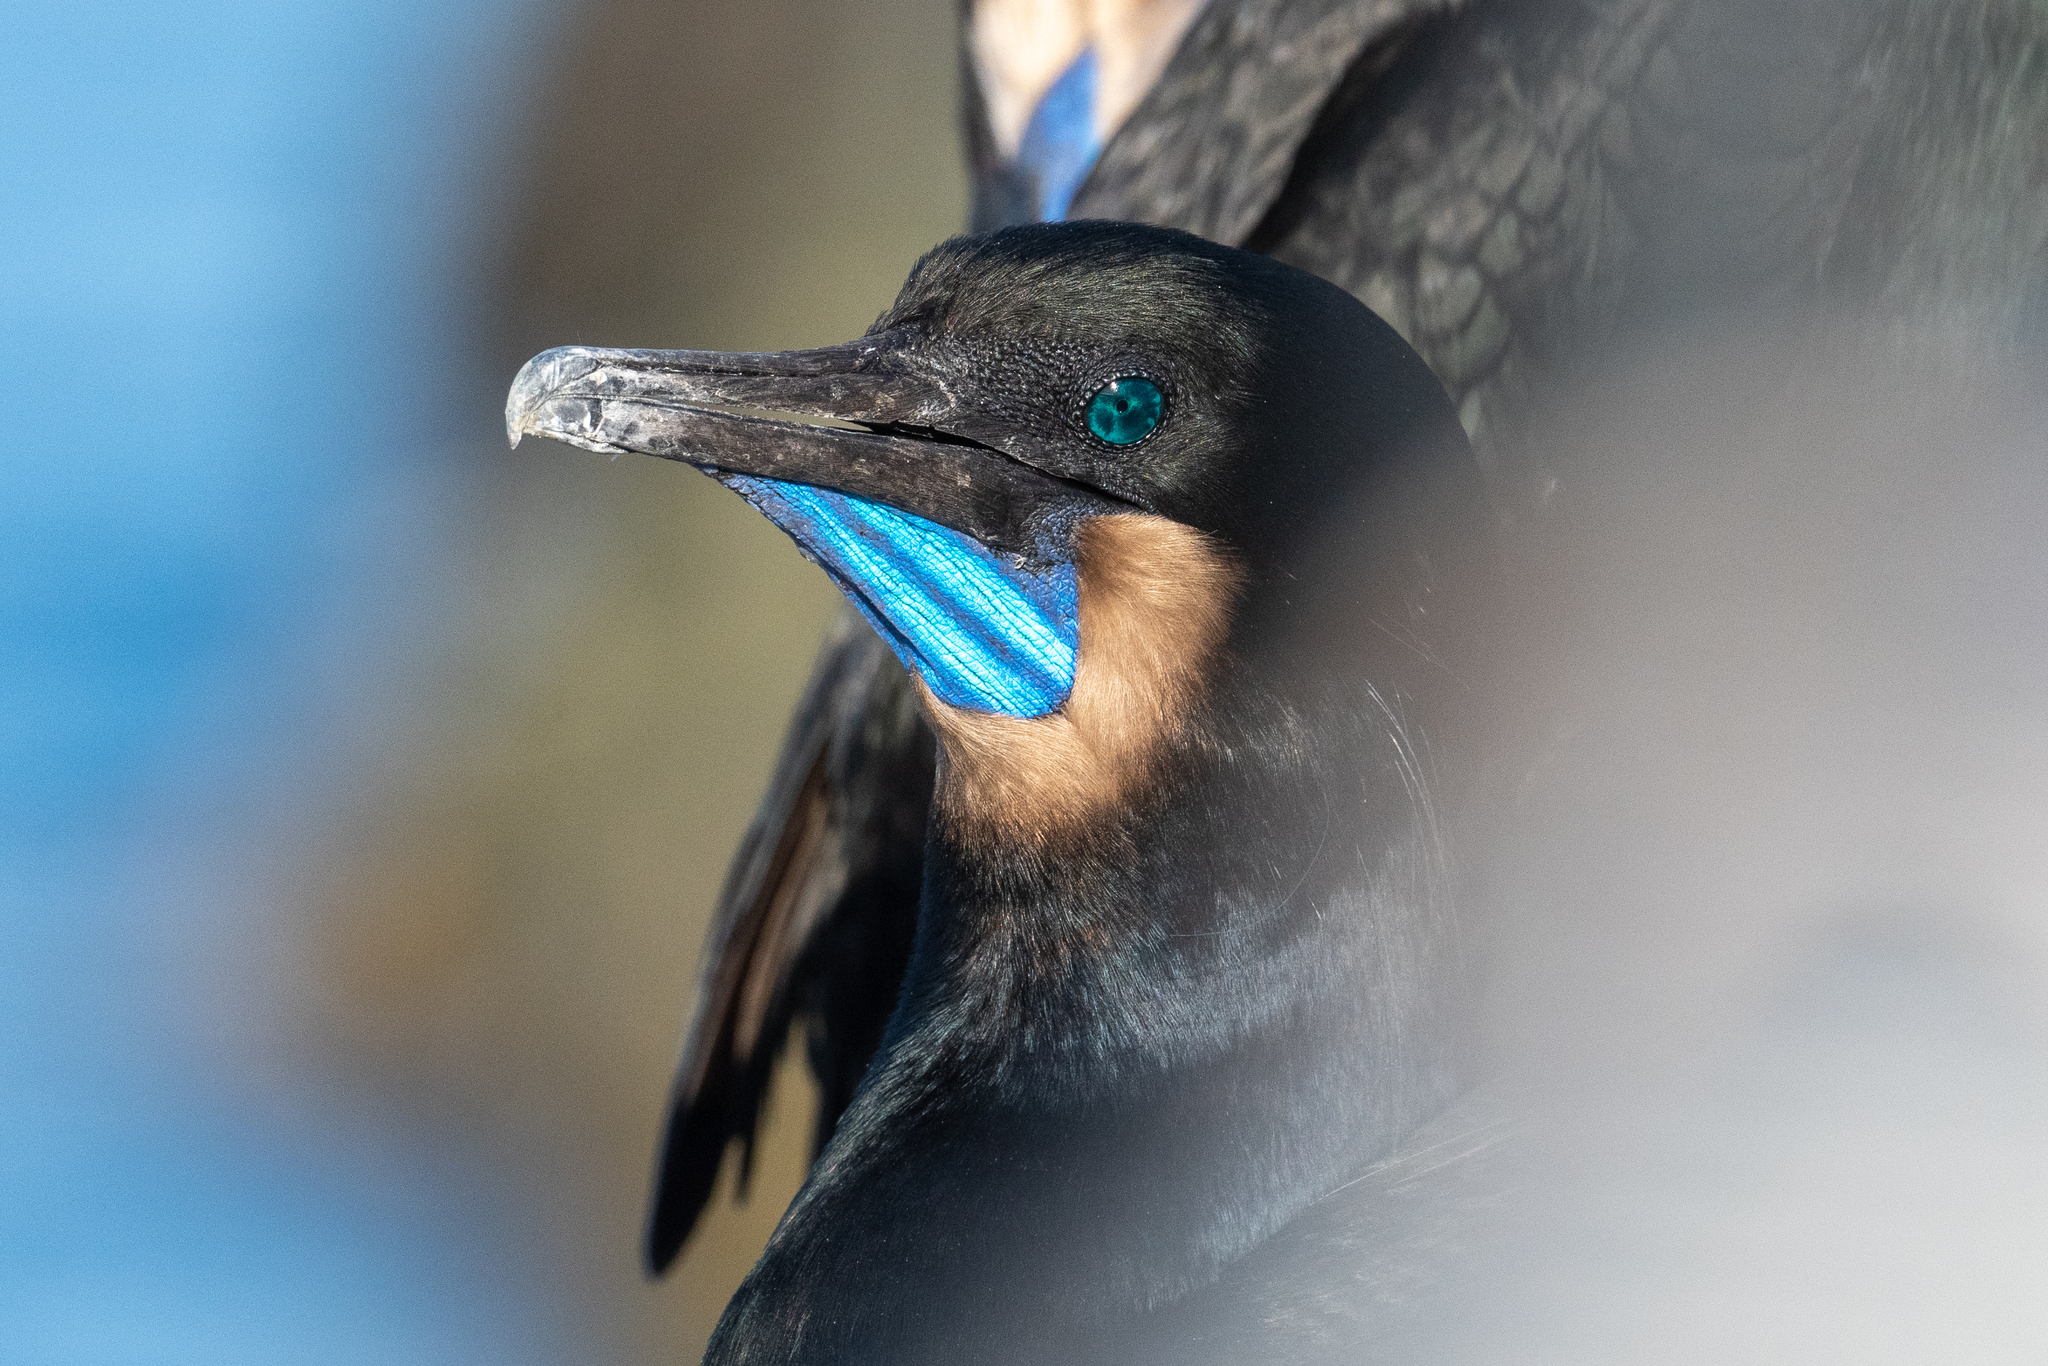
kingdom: Animalia
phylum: Chordata
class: Aves
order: Suliformes
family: Phalacrocoracidae
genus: Urile
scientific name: Urile penicillatus
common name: Brandt's cormorant
